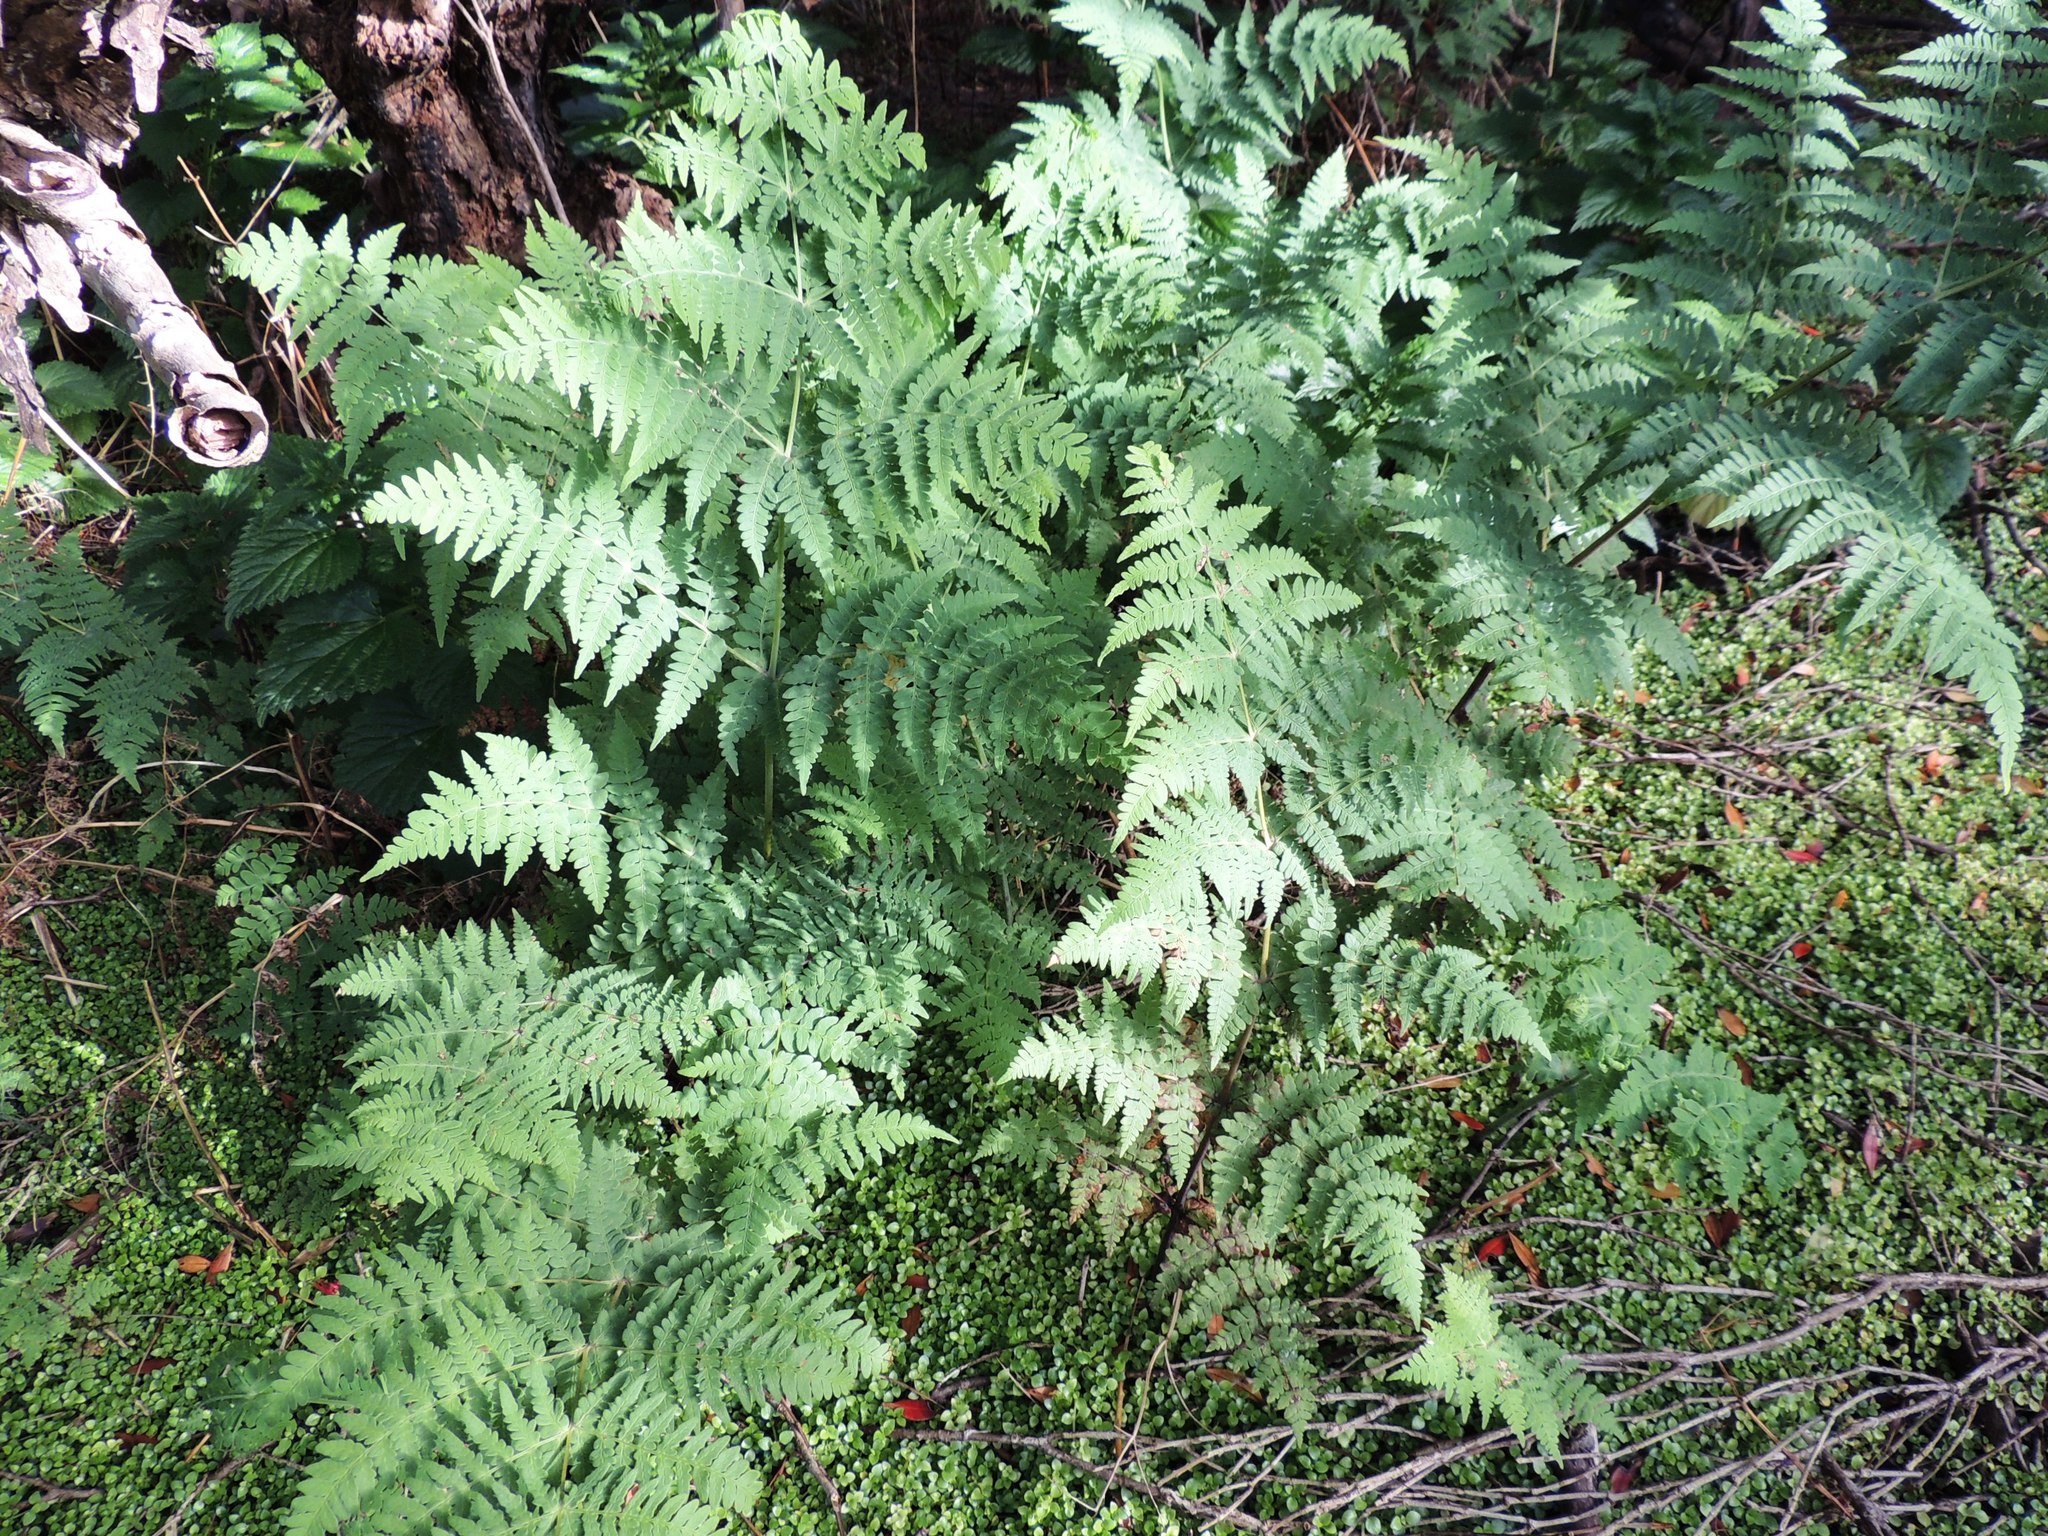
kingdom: Plantae
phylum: Tracheophyta
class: Polypodiopsida
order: Polypodiales
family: Dennstaedtiaceae
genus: Histiopteris
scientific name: Histiopteris incisa
